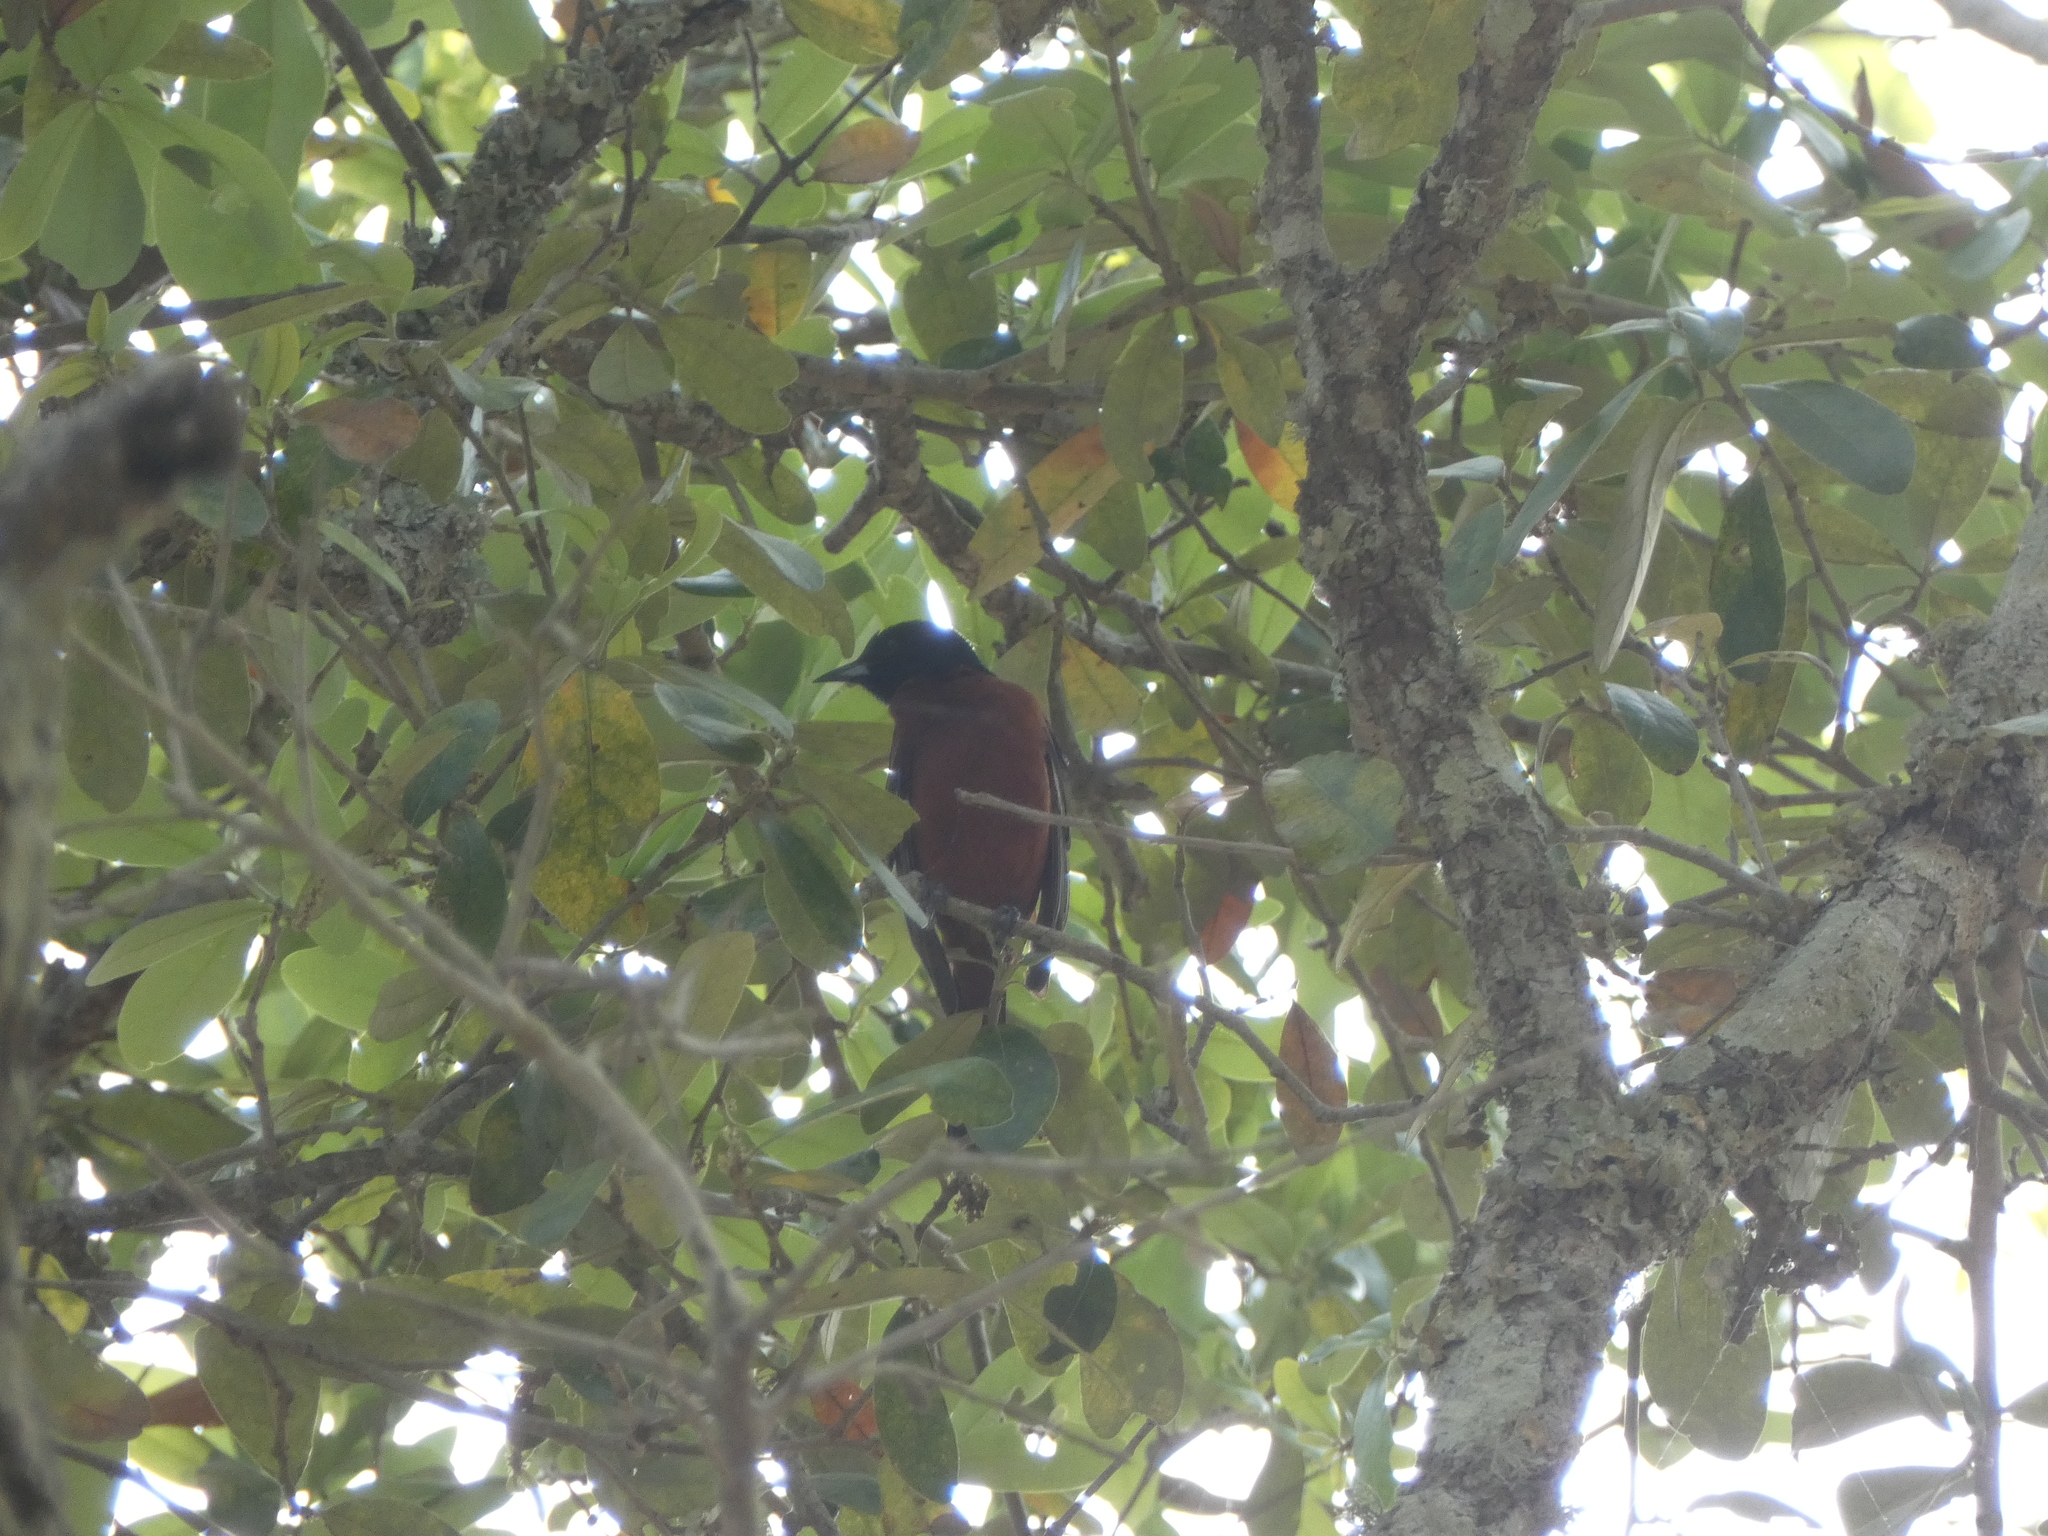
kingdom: Animalia
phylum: Chordata
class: Aves
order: Passeriformes
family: Icteridae
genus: Icterus
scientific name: Icterus spurius
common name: Orchard oriole
